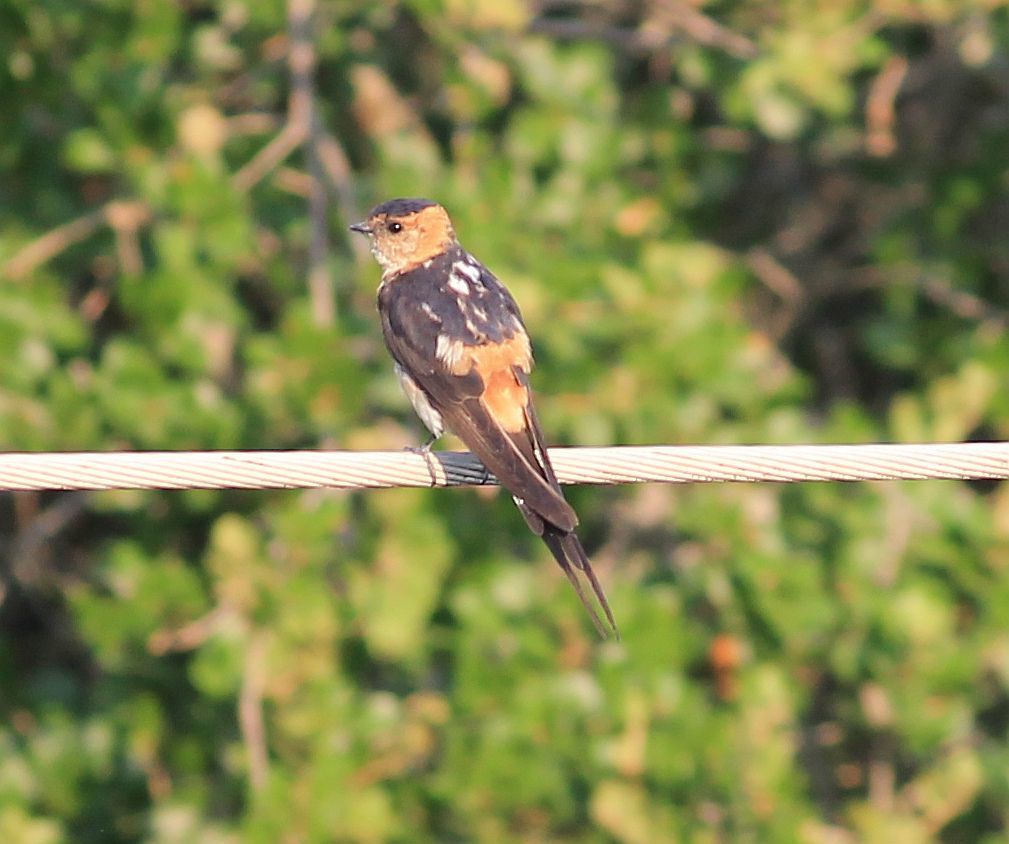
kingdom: Animalia
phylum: Chordata
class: Aves
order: Passeriformes
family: Hirundinidae
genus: Cecropis
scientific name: Cecropis daurica
